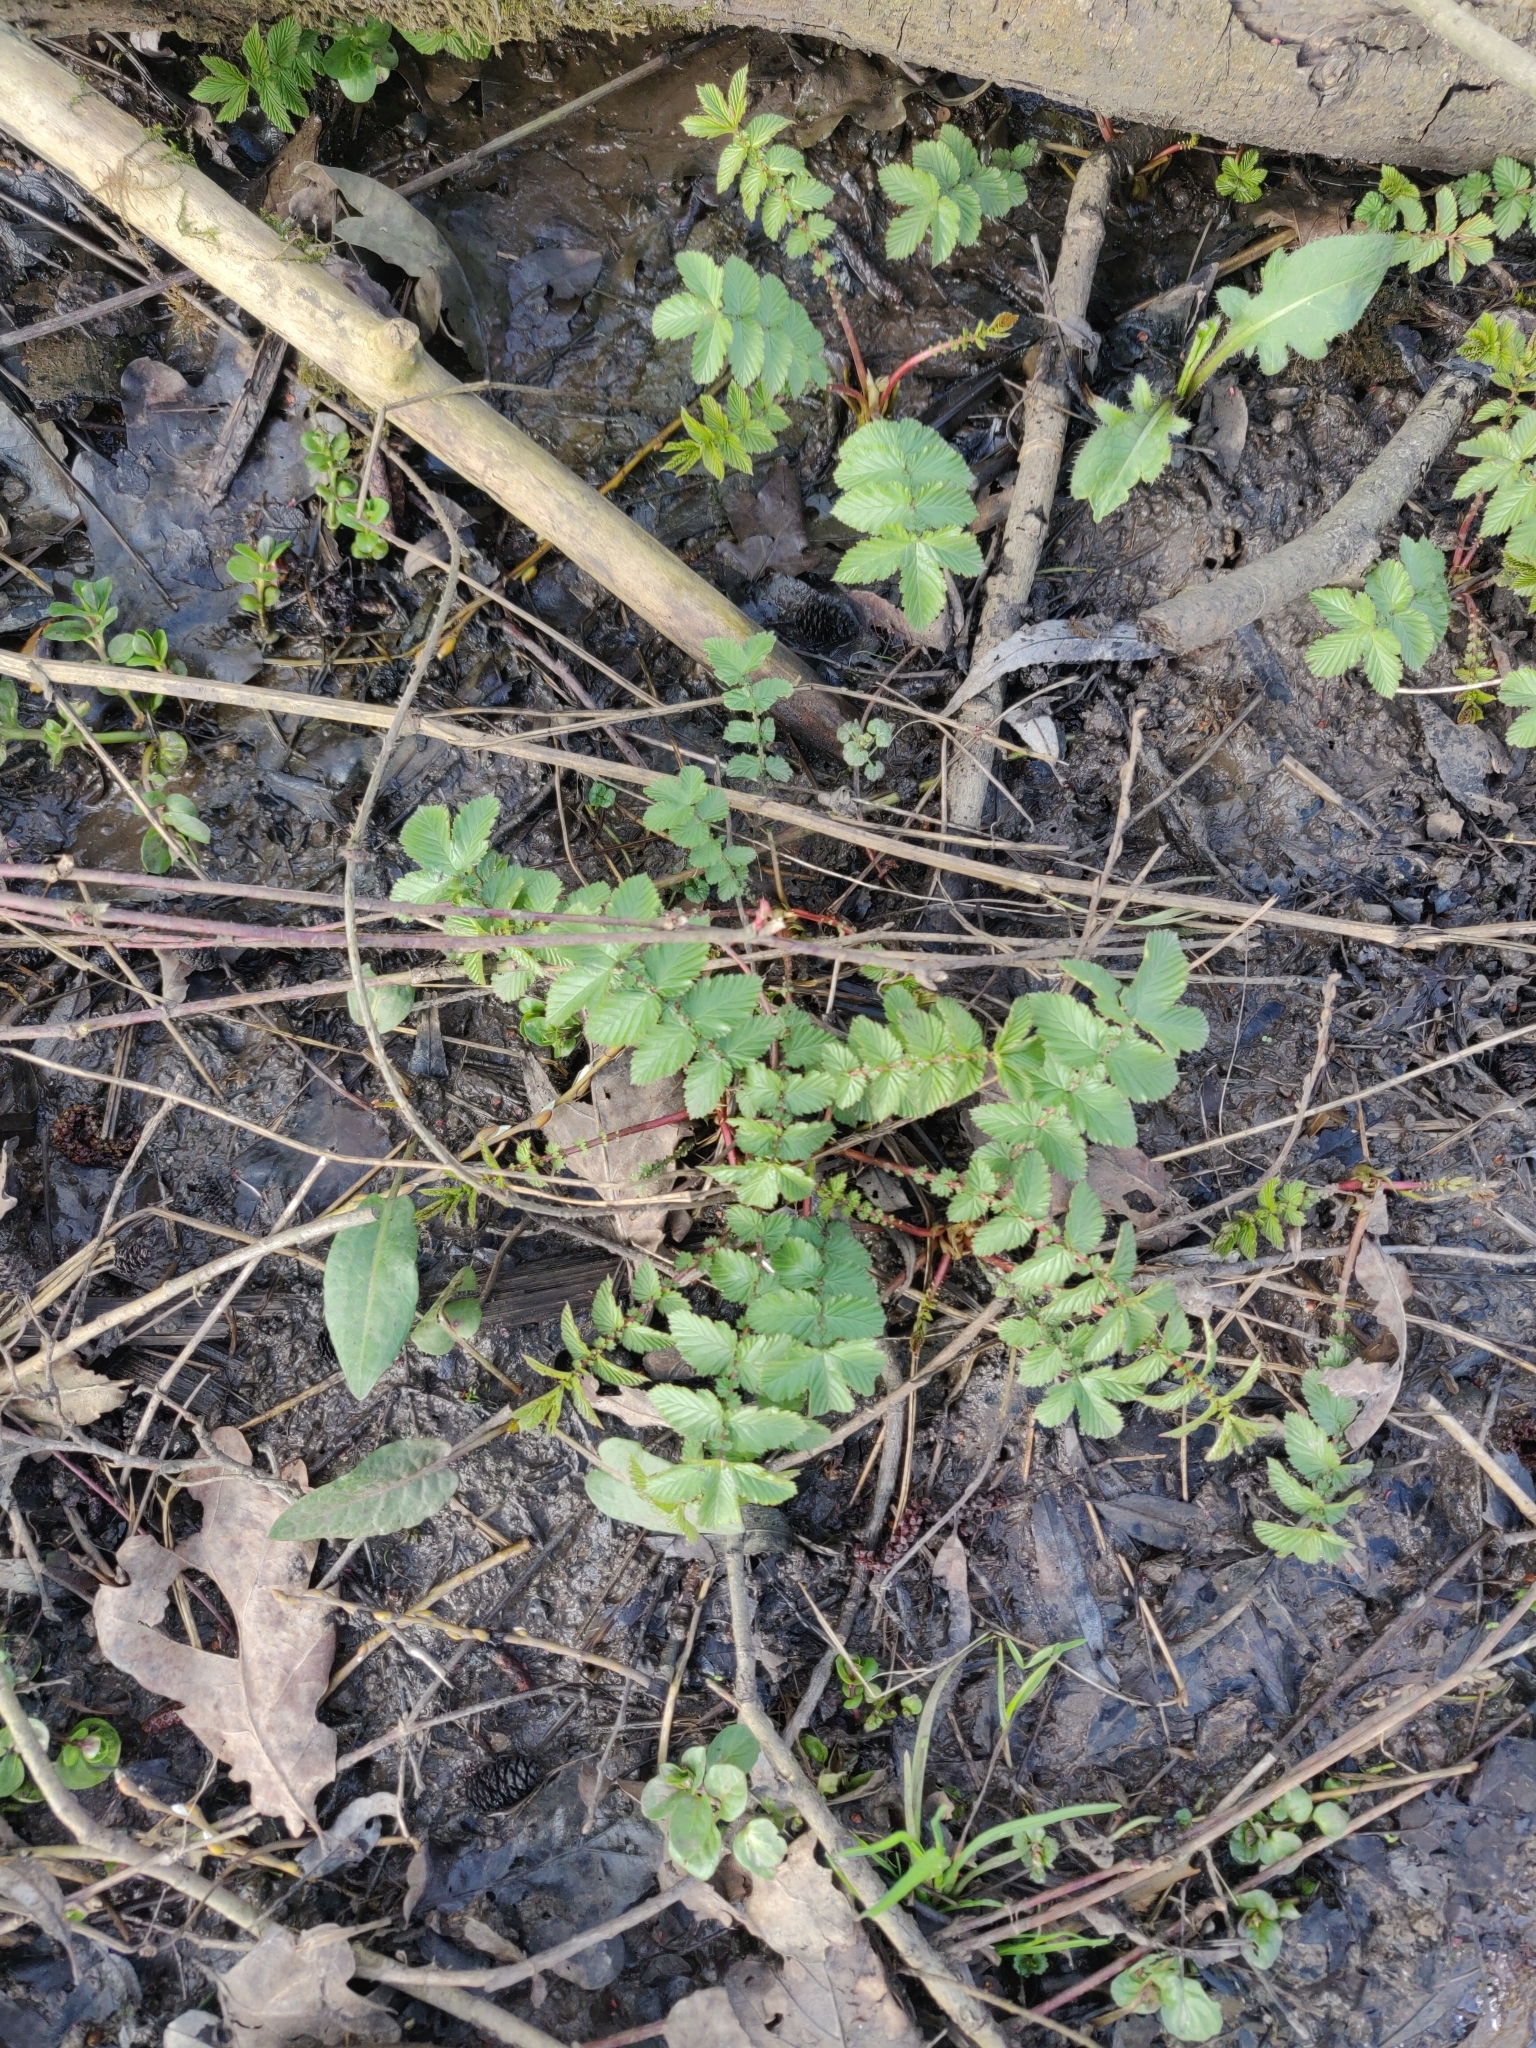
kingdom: Plantae
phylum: Tracheophyta
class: Magnoliopsida
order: Rosales
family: Rosaceae
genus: Filipendula
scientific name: Filipendula ulmaria
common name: Meadowsweet
